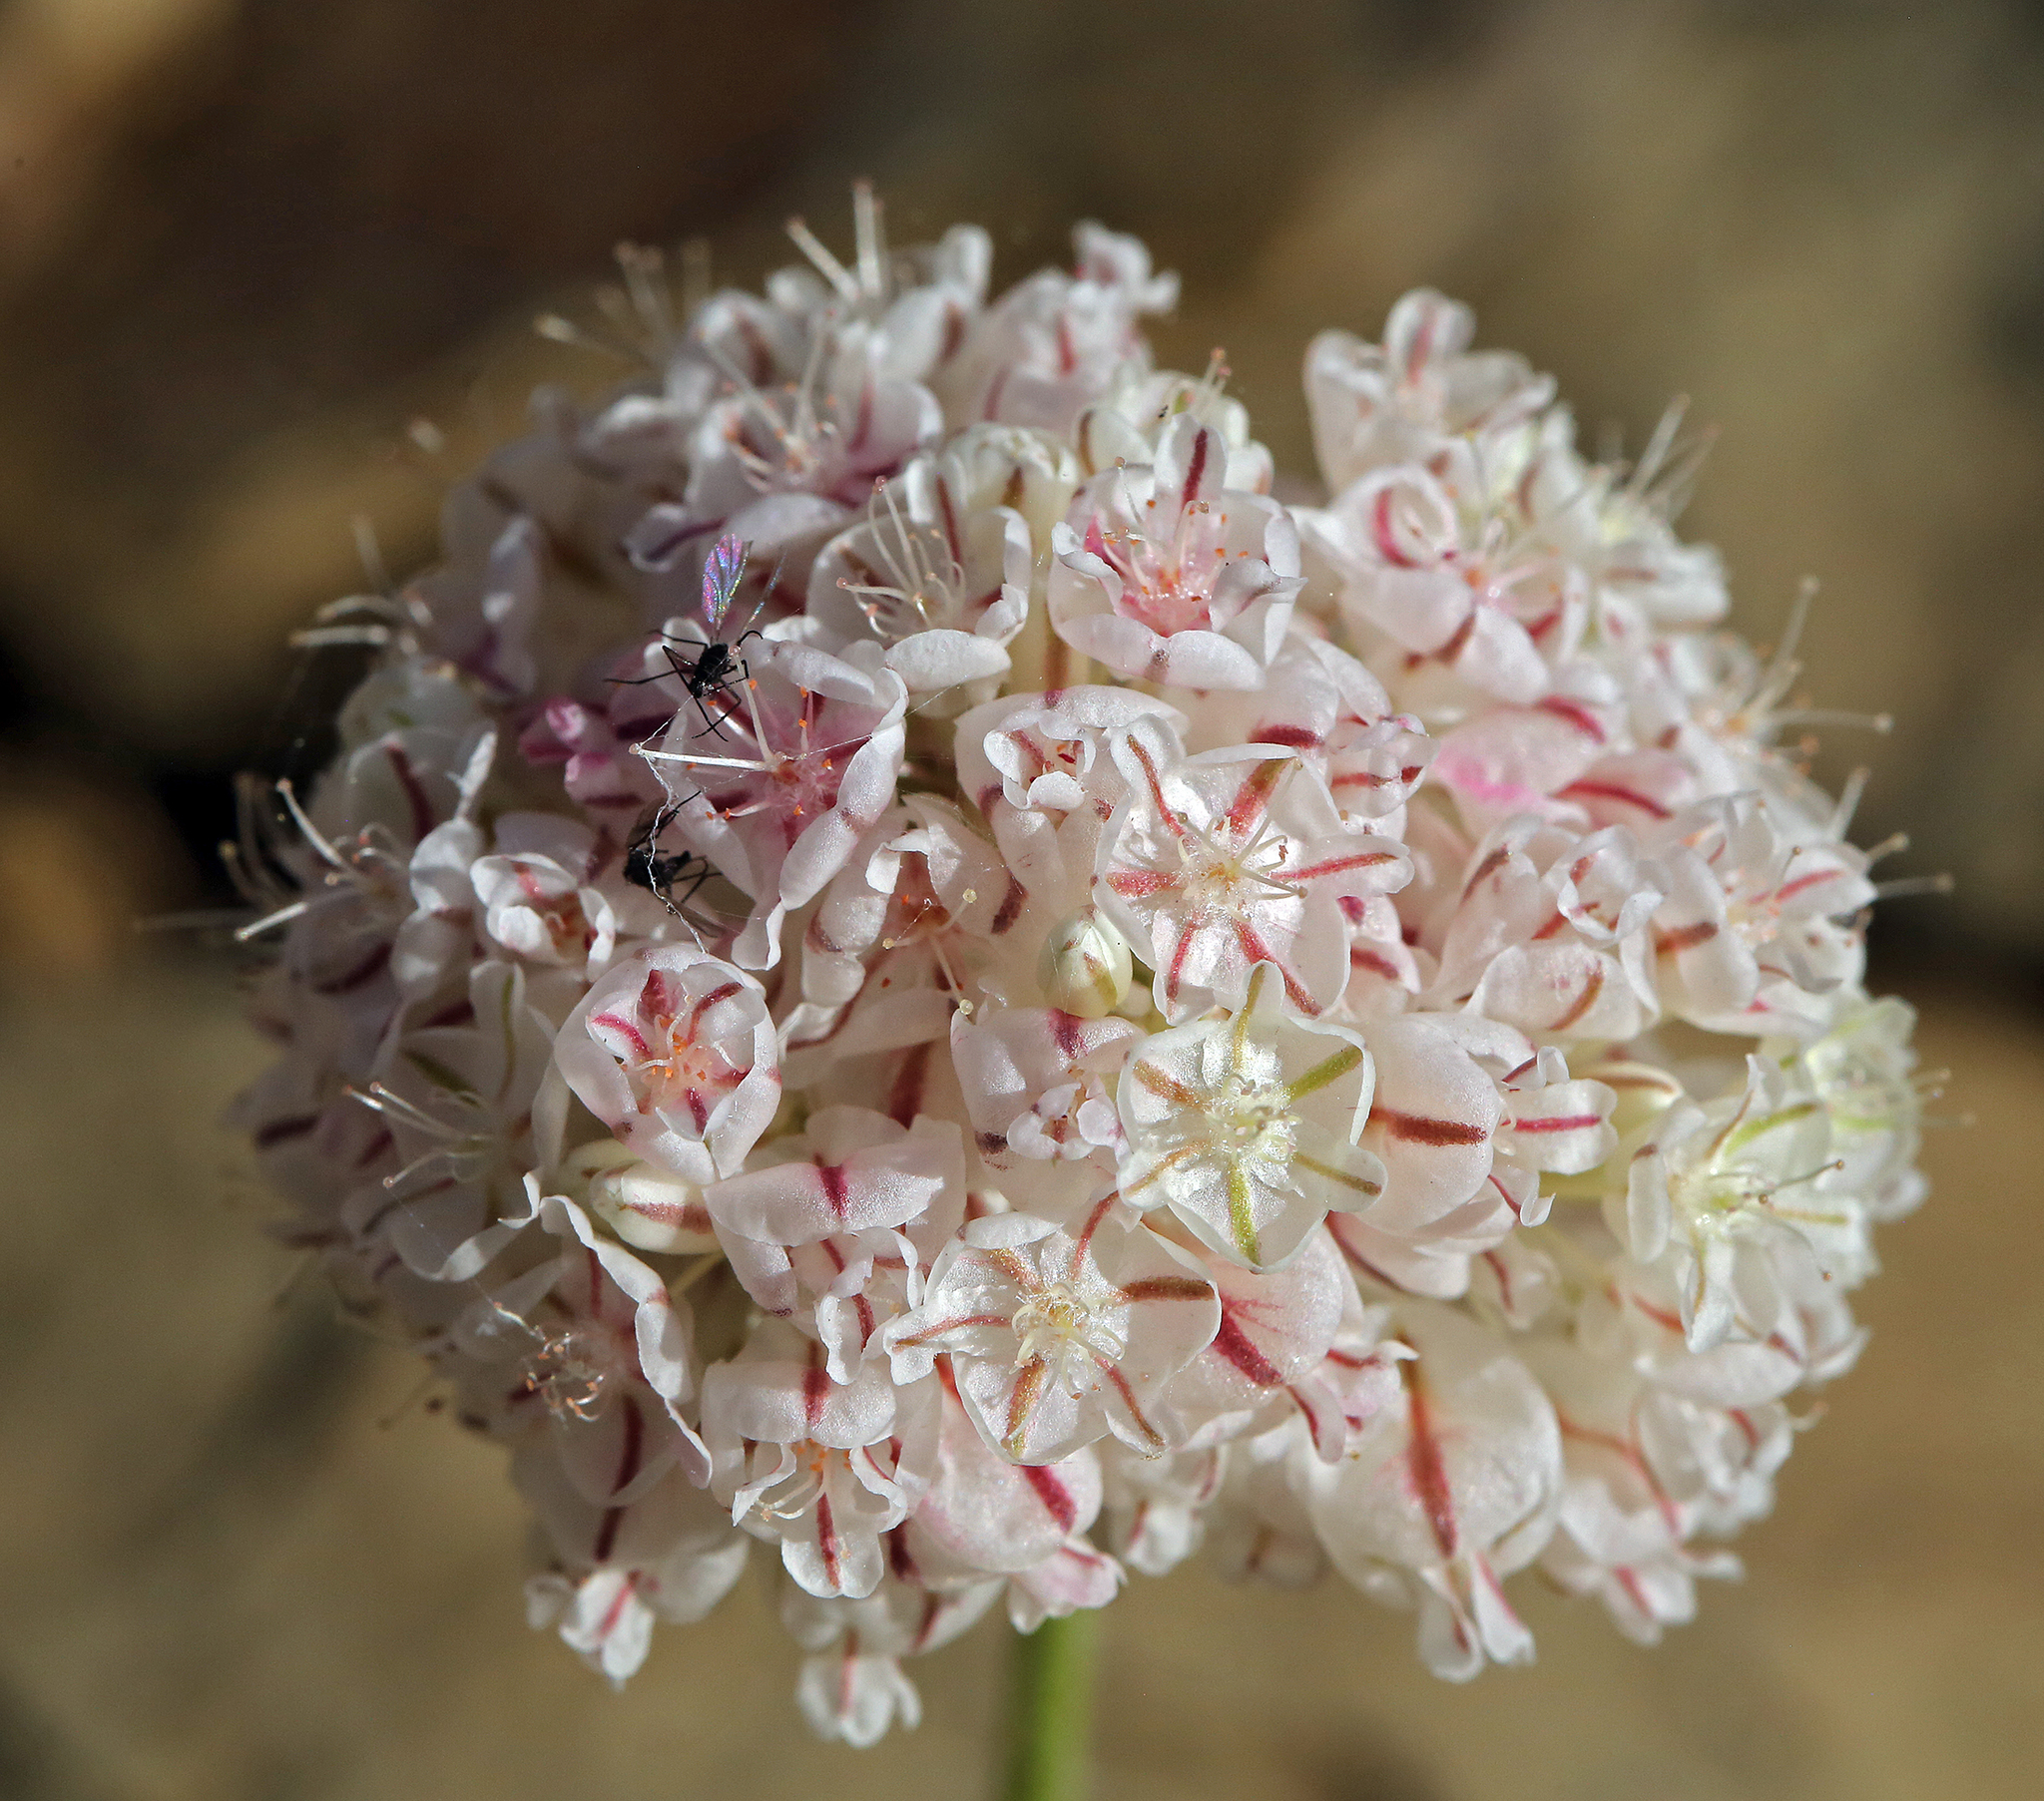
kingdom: Plantae
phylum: Tracheophyta
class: Magnoliopsida
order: Caryophyllales
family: Polygonaceae
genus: Eriogonum
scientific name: Eriogonum ovalifolium
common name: Cushion buckwheat
